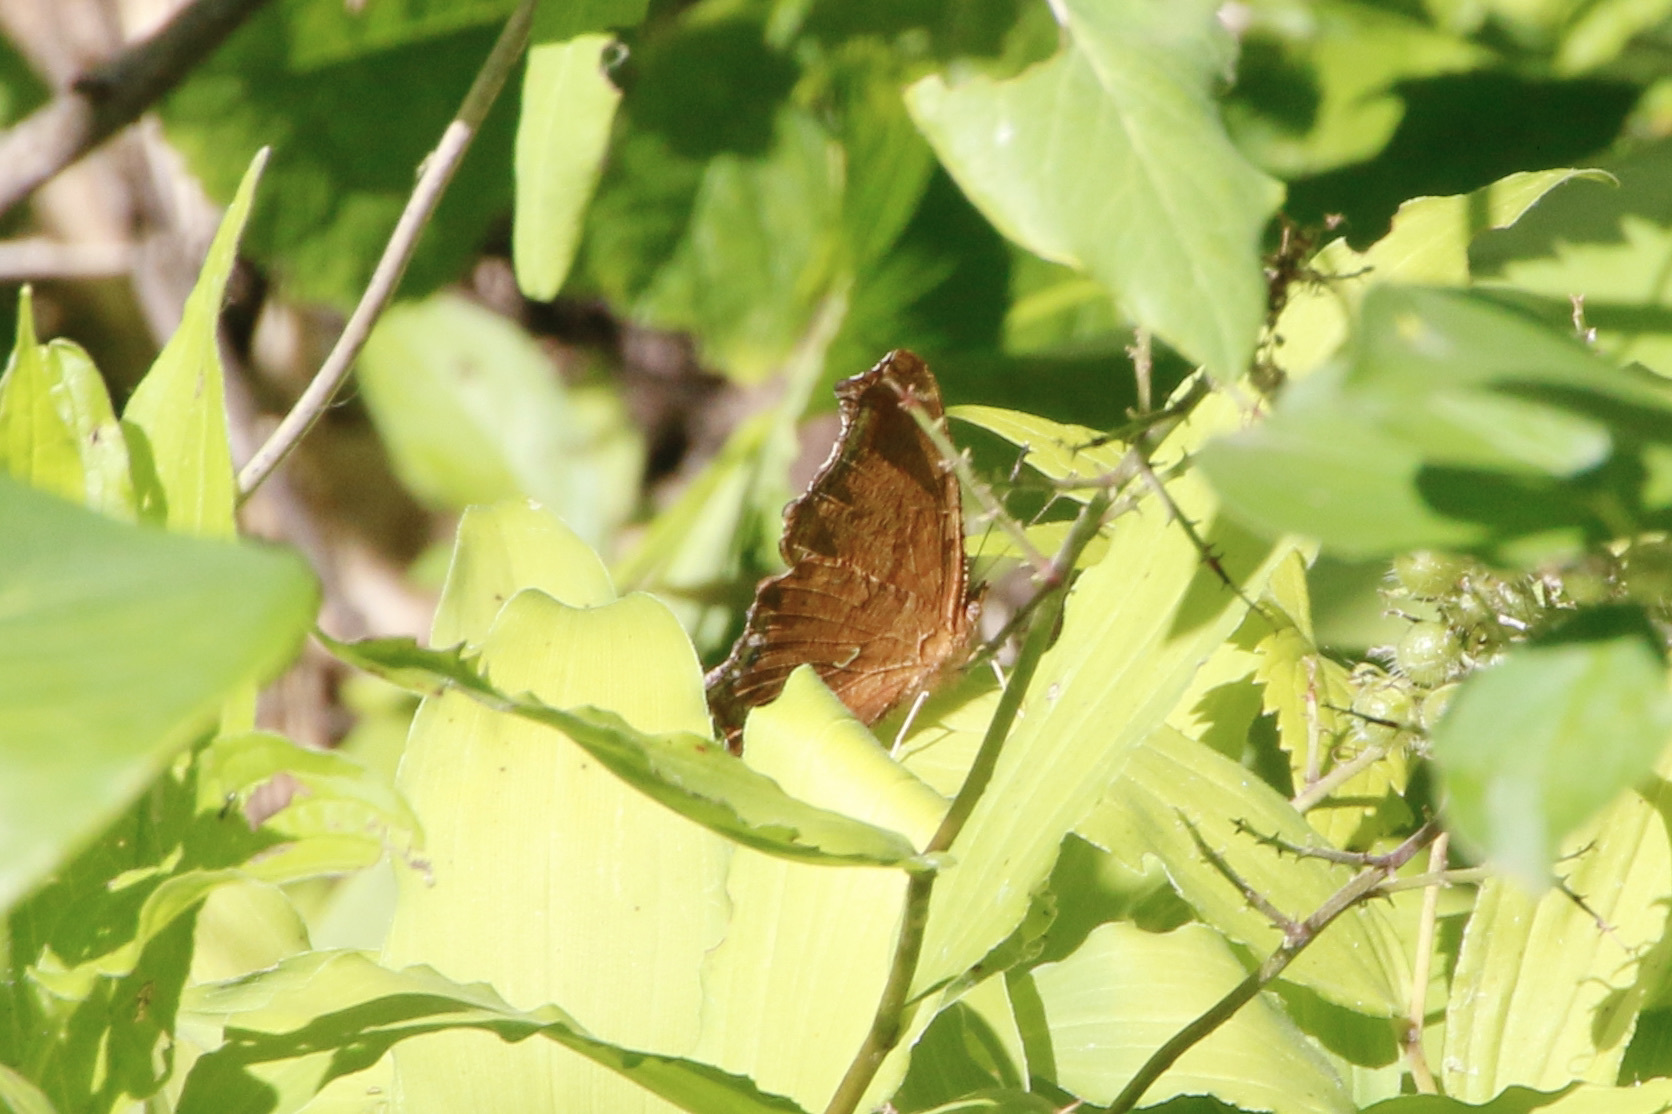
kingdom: Animalia
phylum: Arthropoda
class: Insecta
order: Lepidoptera
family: Nymphalidae
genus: Polygonia
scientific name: Polygonia comma
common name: Eastern comma
